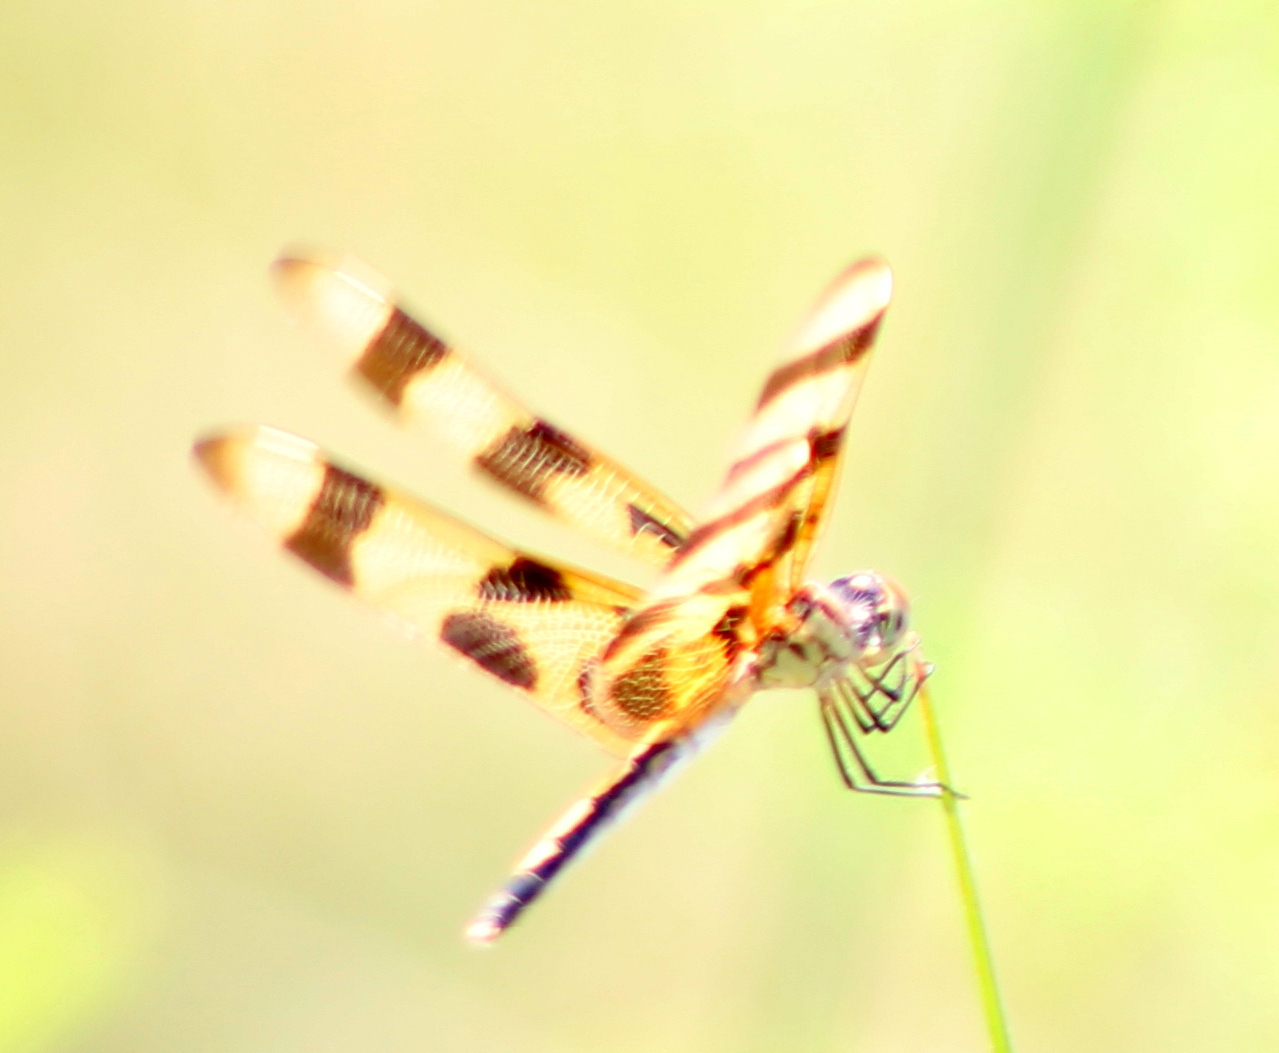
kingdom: Animalia
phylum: Arthropoda
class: Insecta
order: Odonata
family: Libellulidae
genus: Celithemis
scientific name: Celithemis eponina
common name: Halloween pennant
